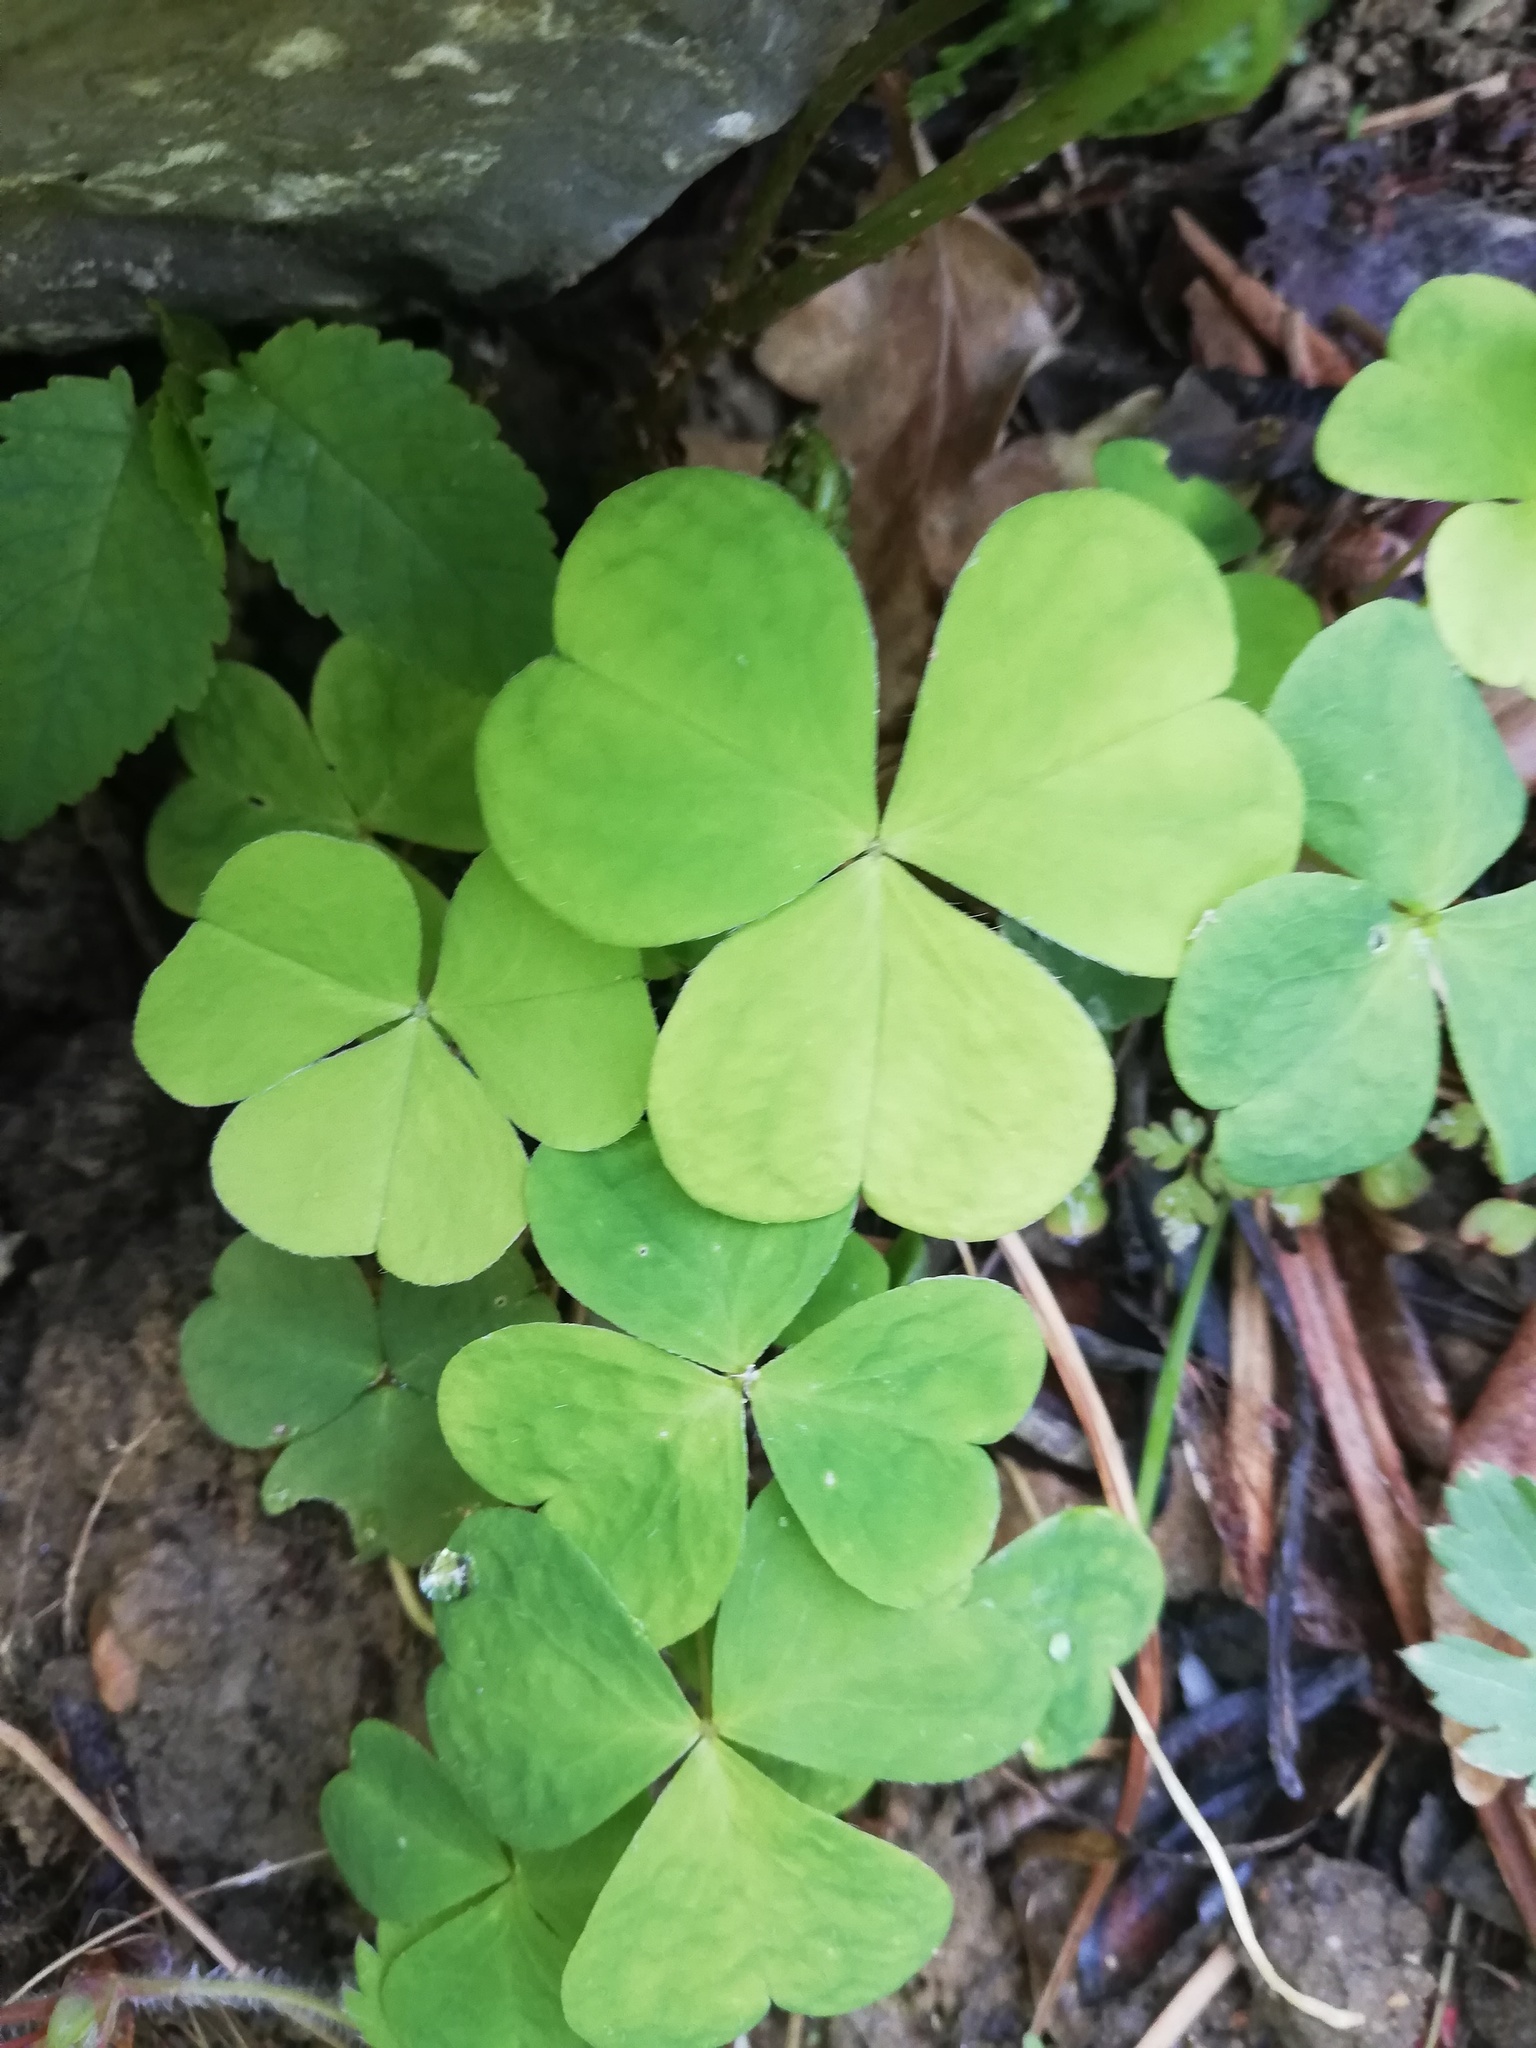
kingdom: Plantae
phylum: Tracheophyta
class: Magnoliopsida
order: Oxalidales
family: Oxalidaceae
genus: Oxalis
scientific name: Oxalis acetosella
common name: Wood-sorrel
